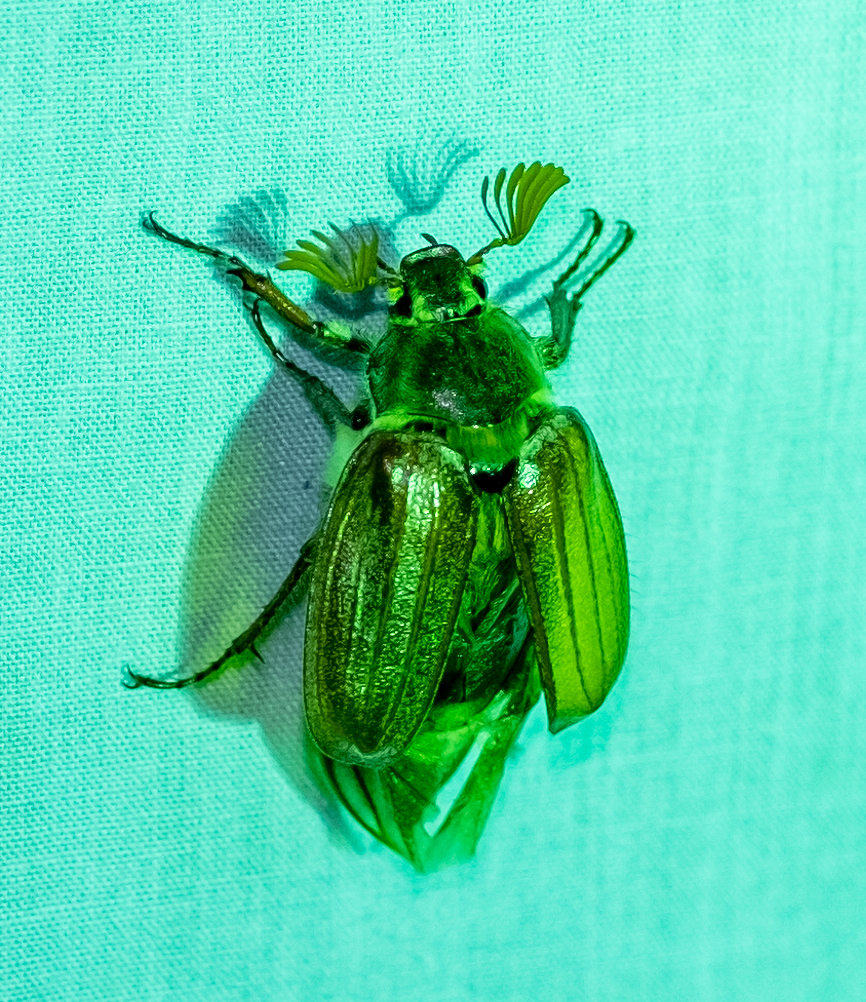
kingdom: Animalia
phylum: Arthropoda
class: Insecta
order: Coleoptera
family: Scarabaeidae
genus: Melolontha
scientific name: Melolontha melolontha
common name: Cockchafer maybeetle
